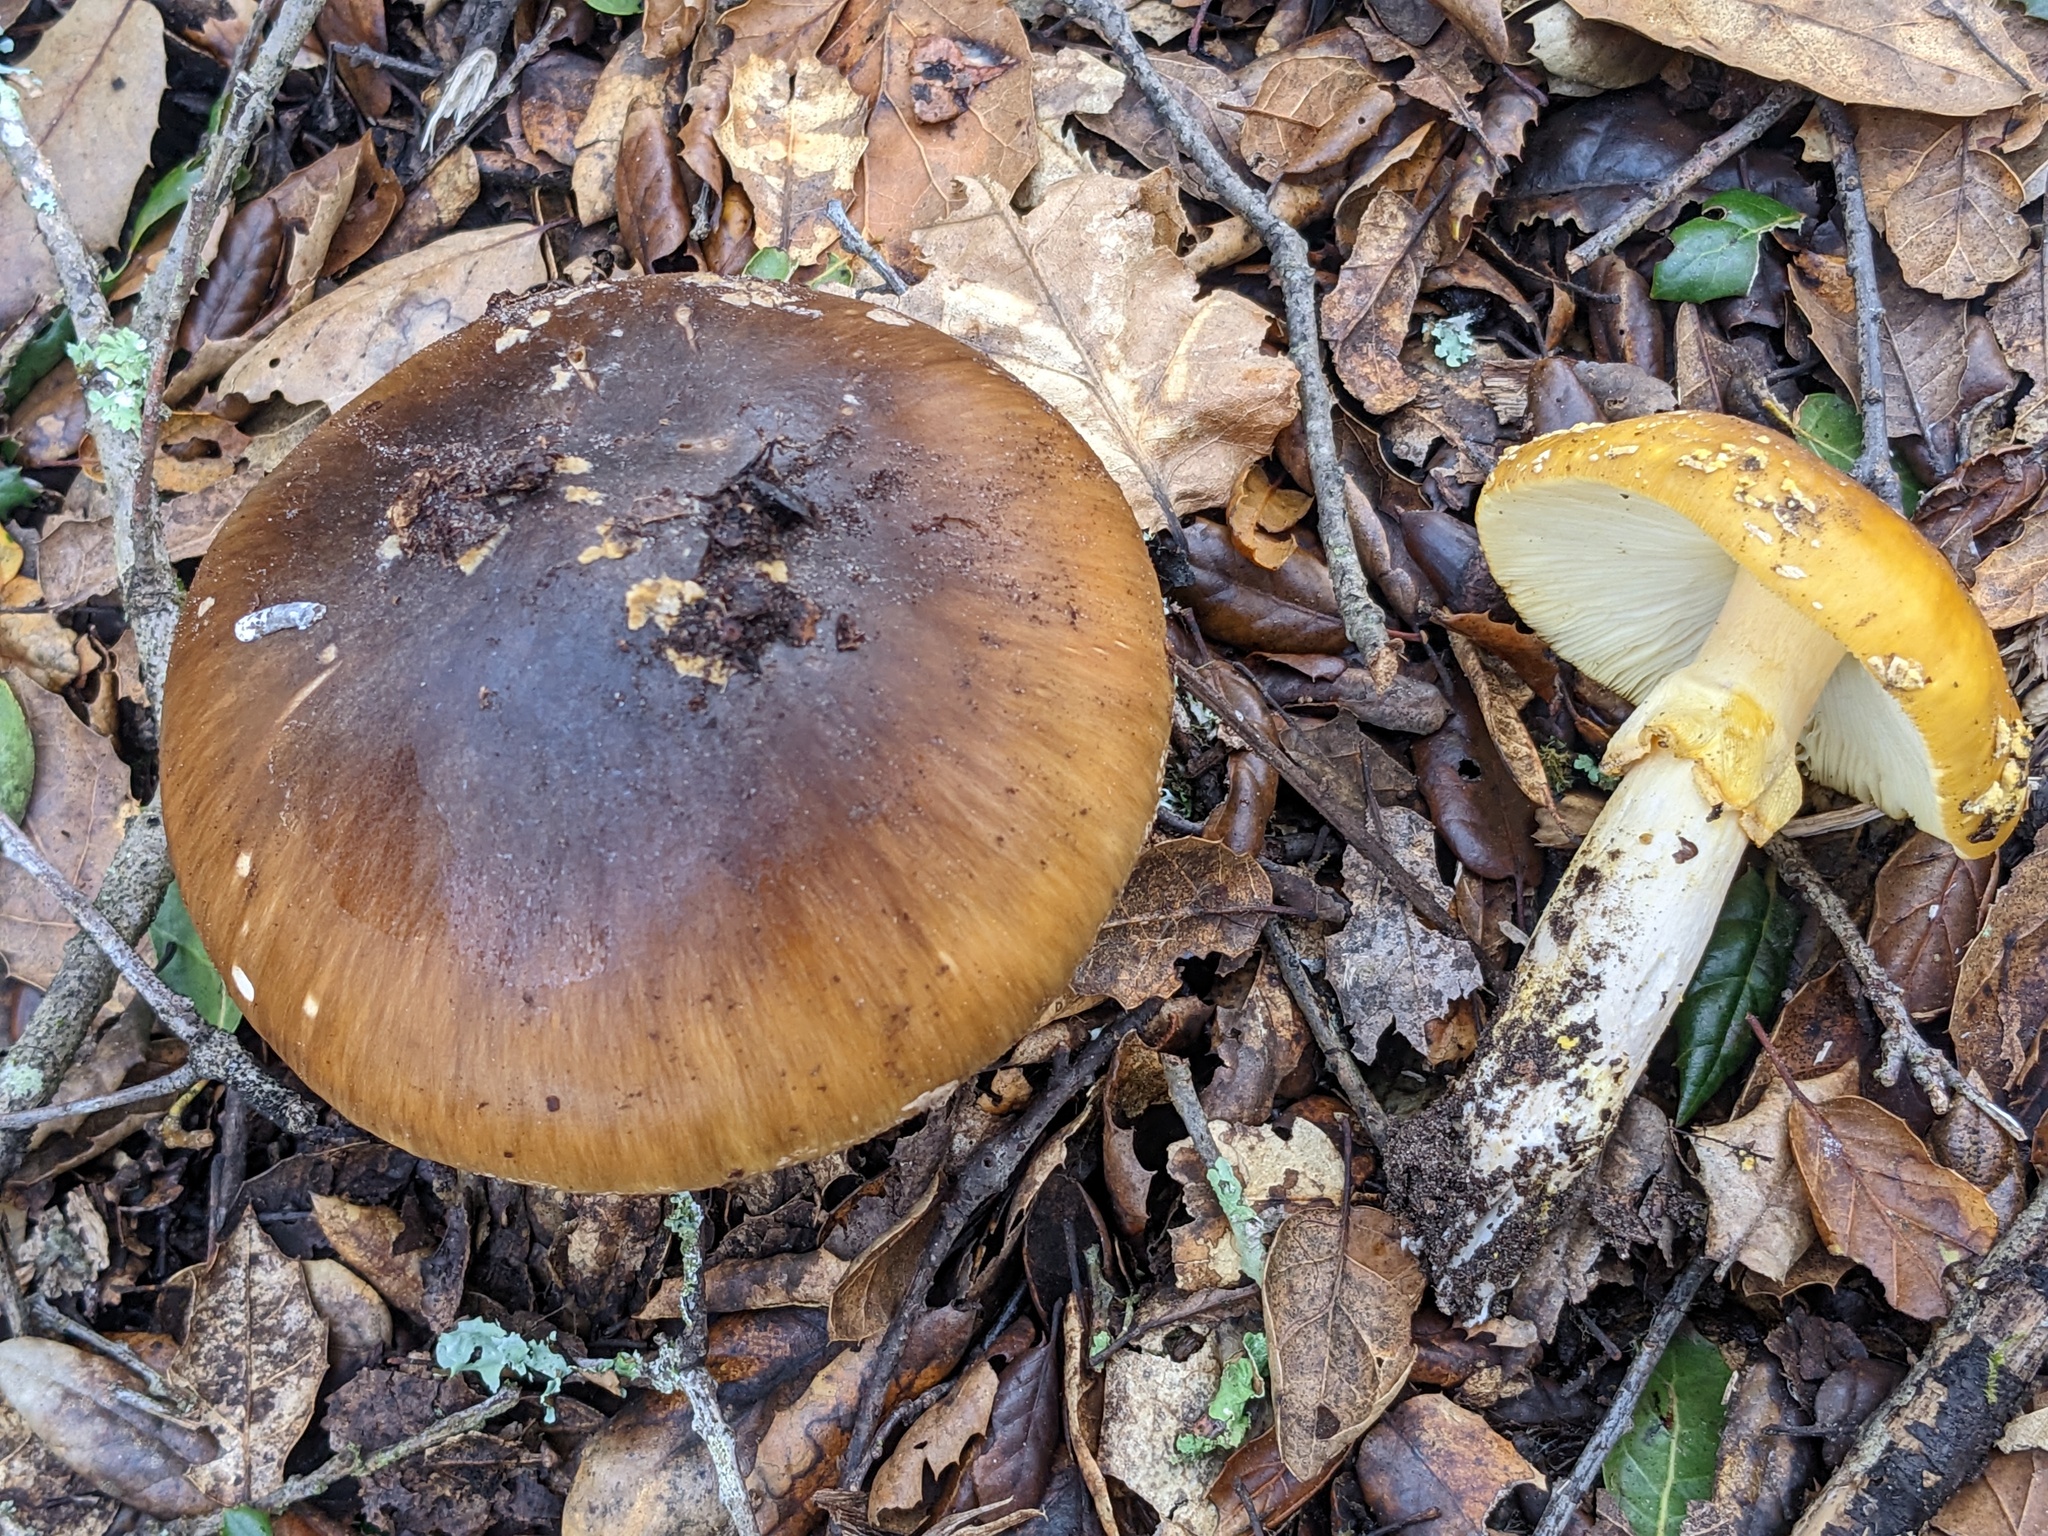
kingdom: Fungi
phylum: Basidiomycota
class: Agaricomycetes
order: Agaricales
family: Amanitaceae
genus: Amanita
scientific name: Amanita augusta
